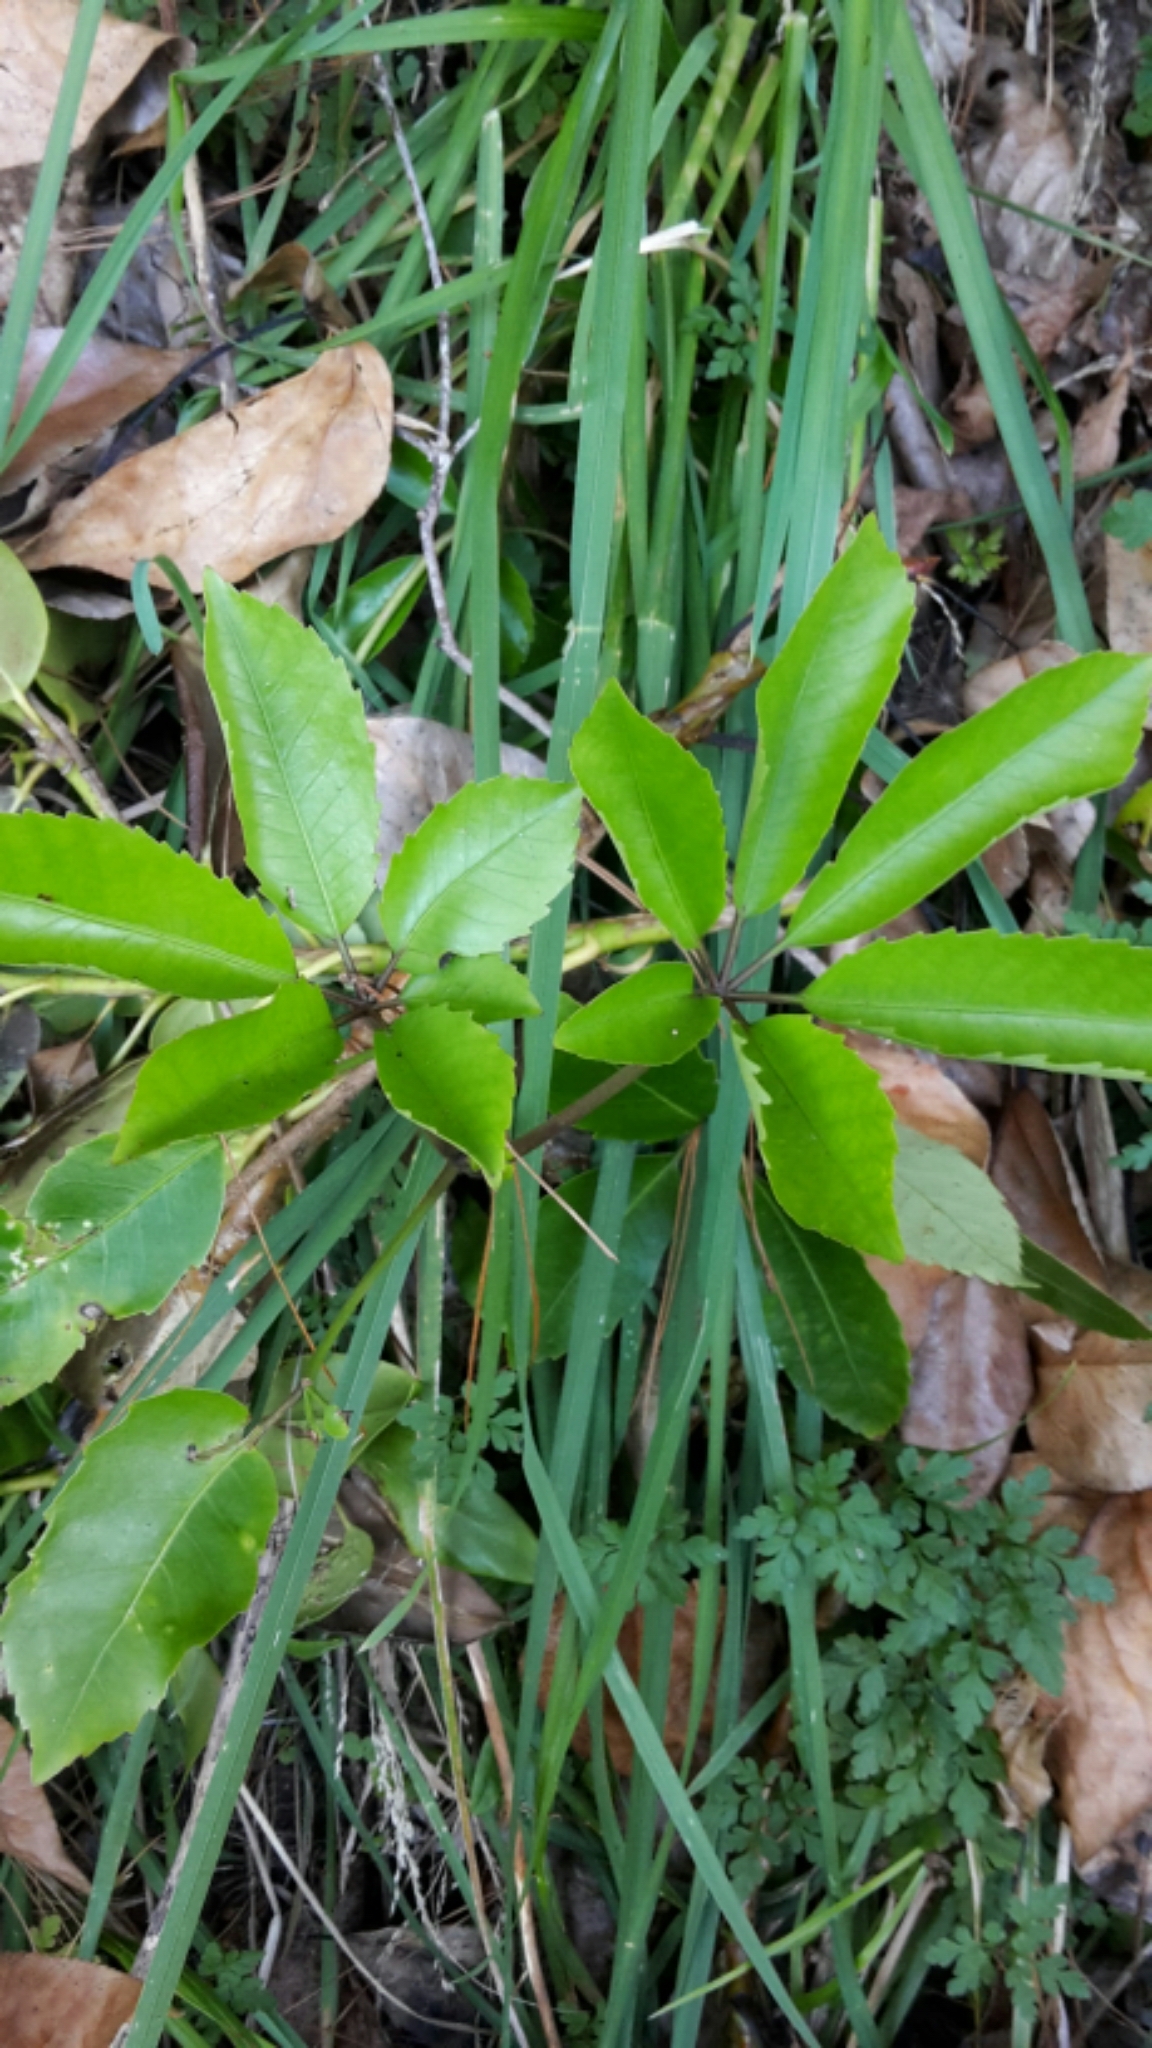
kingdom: Plantae
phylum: Tracheophyta
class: Magnoliopsida
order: Apiales
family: Araliaceae
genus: Neopanax
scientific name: Neopanax arboreus
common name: Five-fingers
